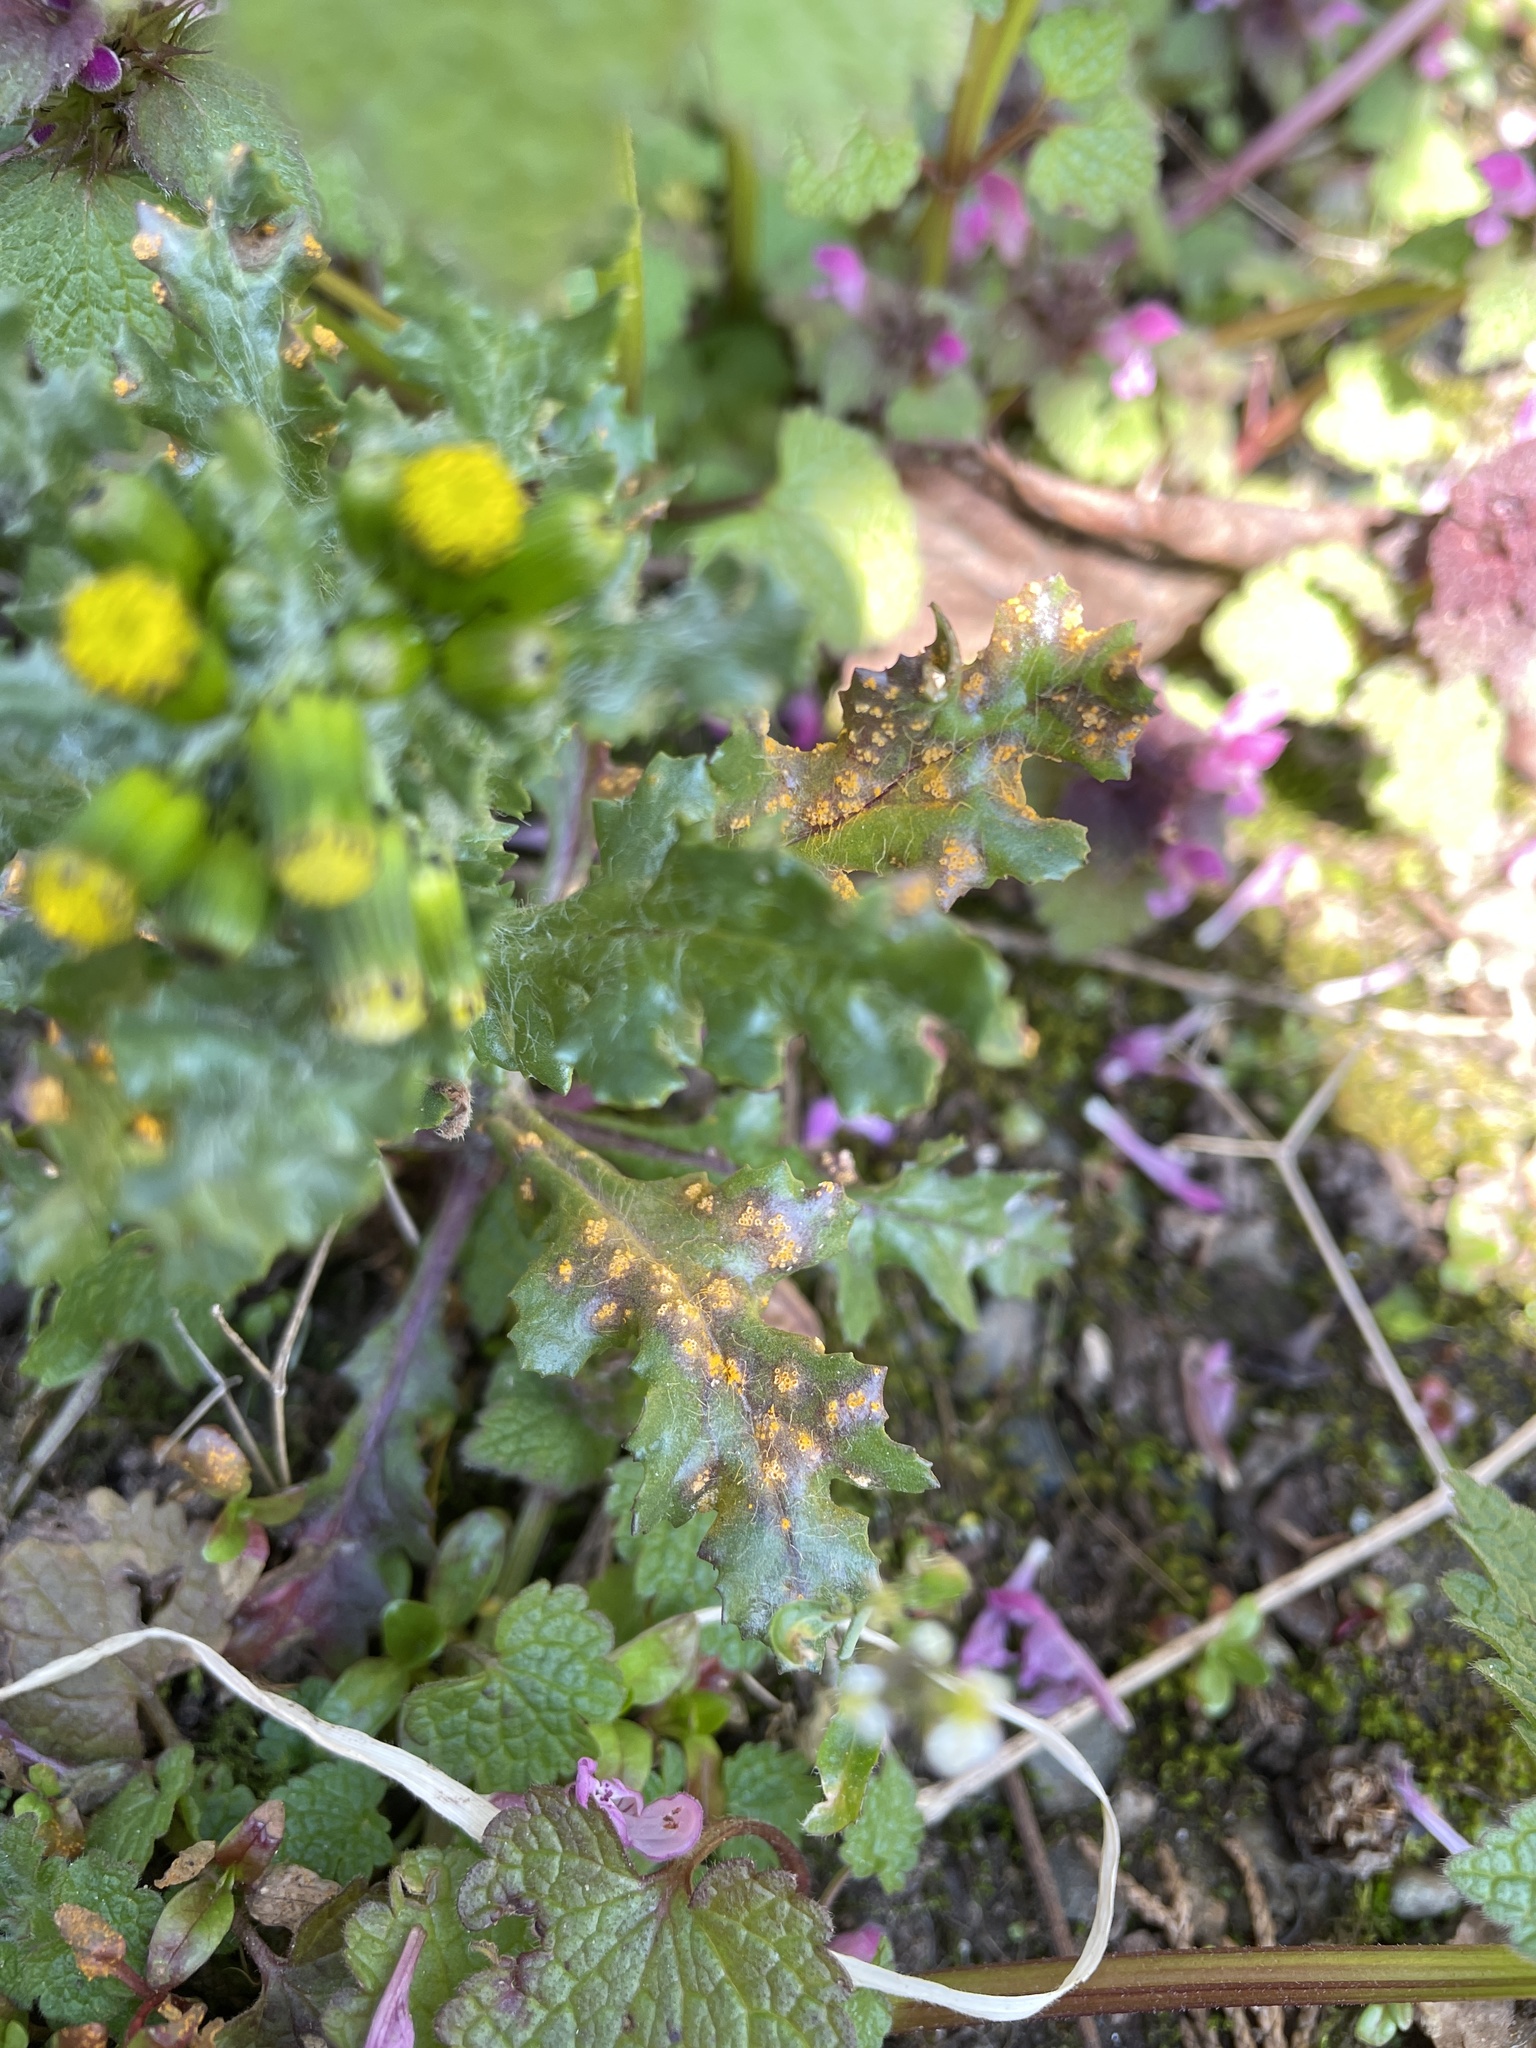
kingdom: Fungi
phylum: Basidiomycota
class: Pucciniomycetes
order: Pucciniales
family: Pucciniaceae
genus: Puccinia
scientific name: Puccinia lagenophorae
